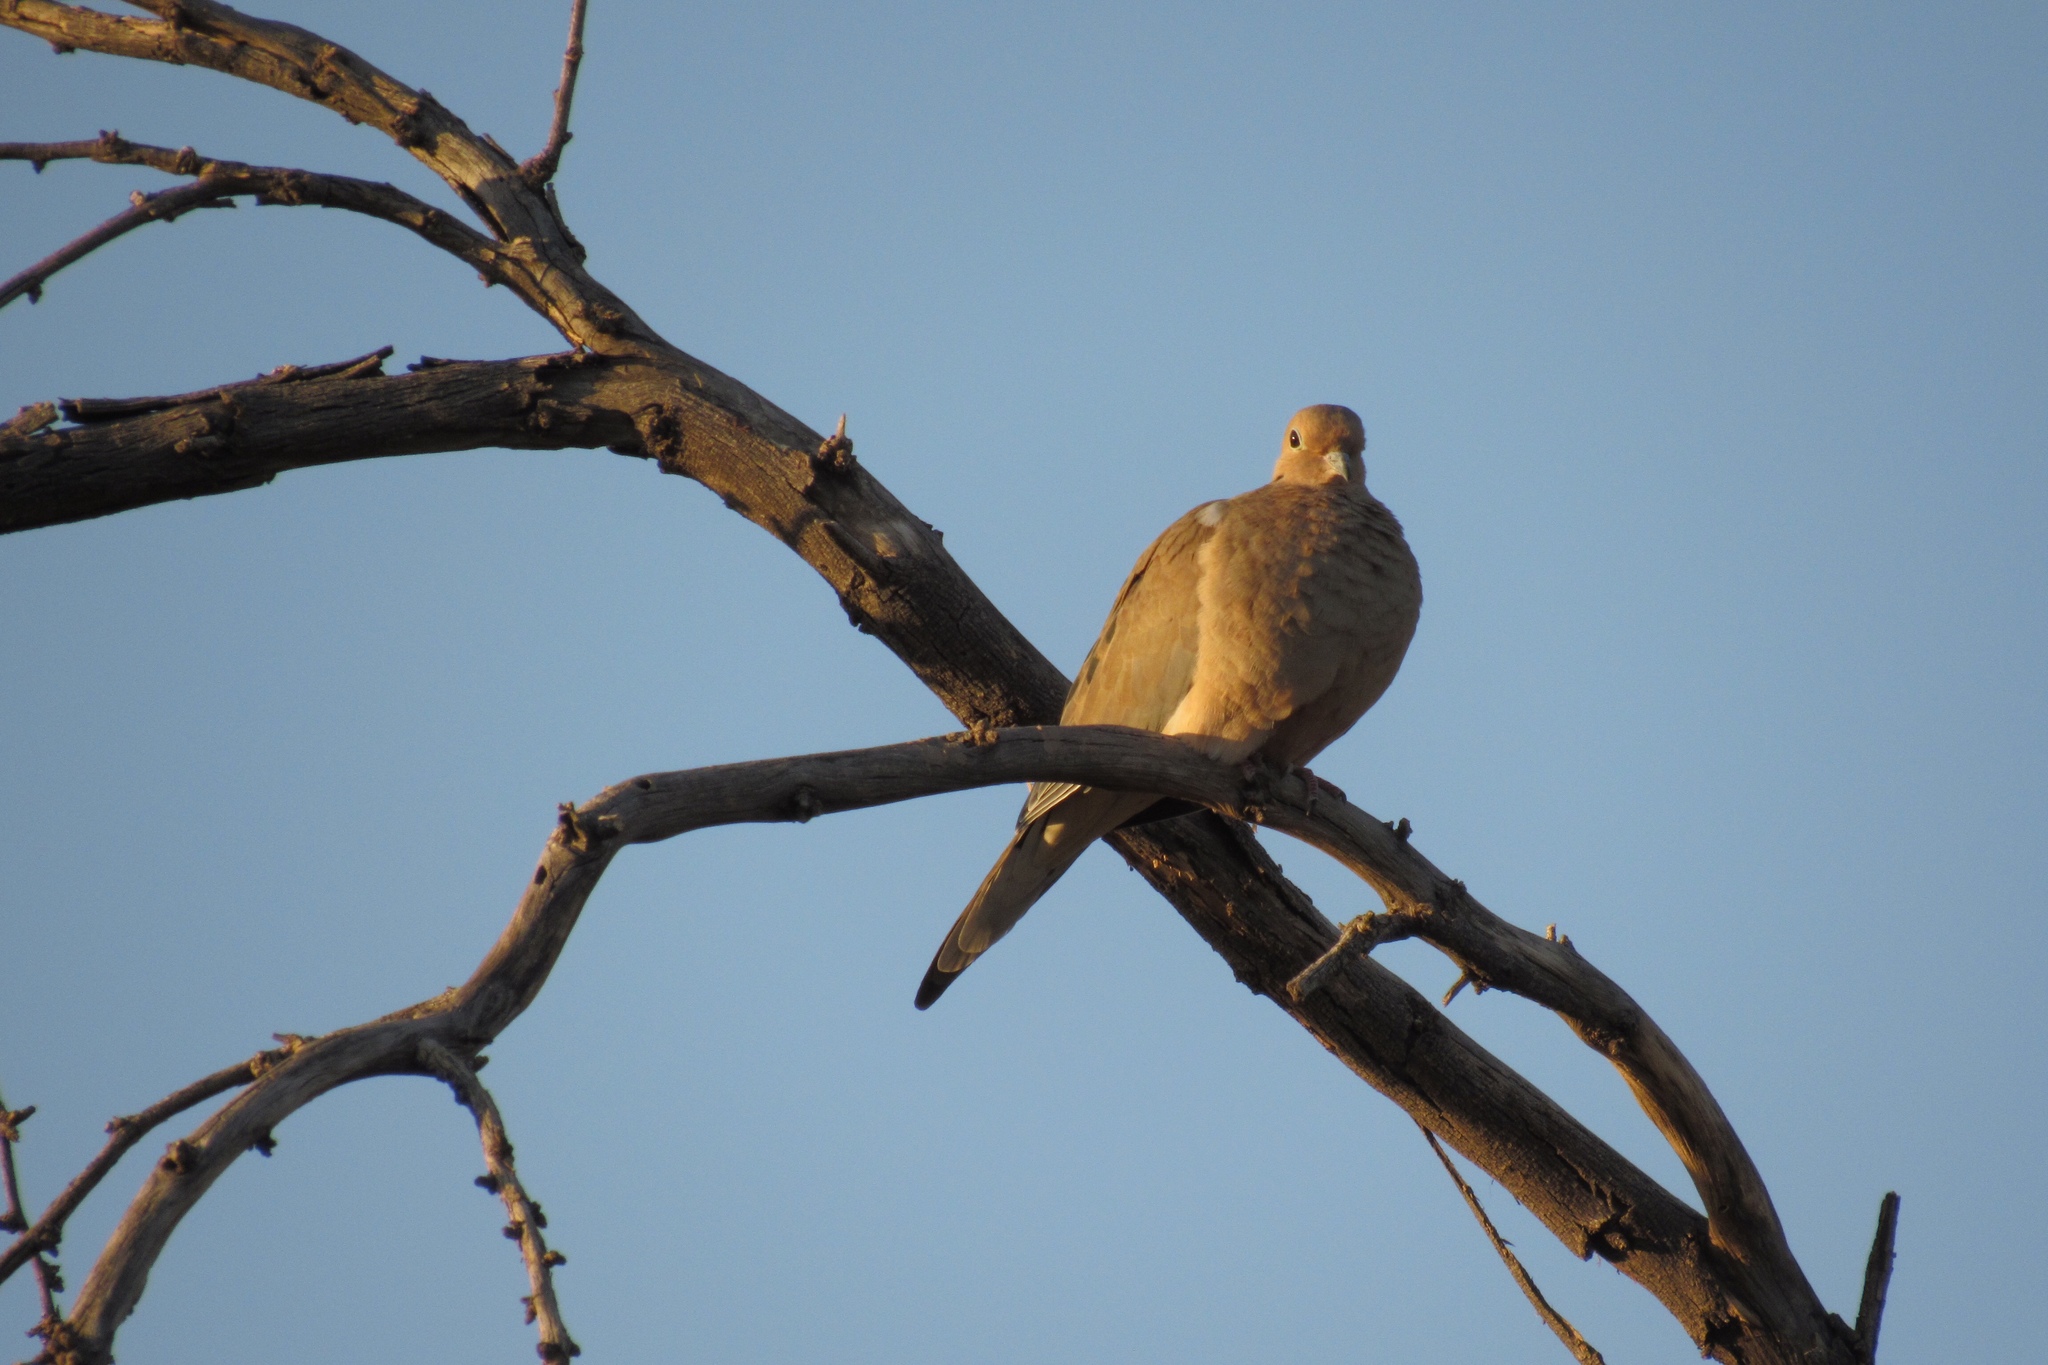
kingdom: Animalia
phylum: Chordata
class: Aves
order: Columbiformes
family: Columbidae
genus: Zenaida
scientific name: Zenaida macroura
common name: Mourning dove
